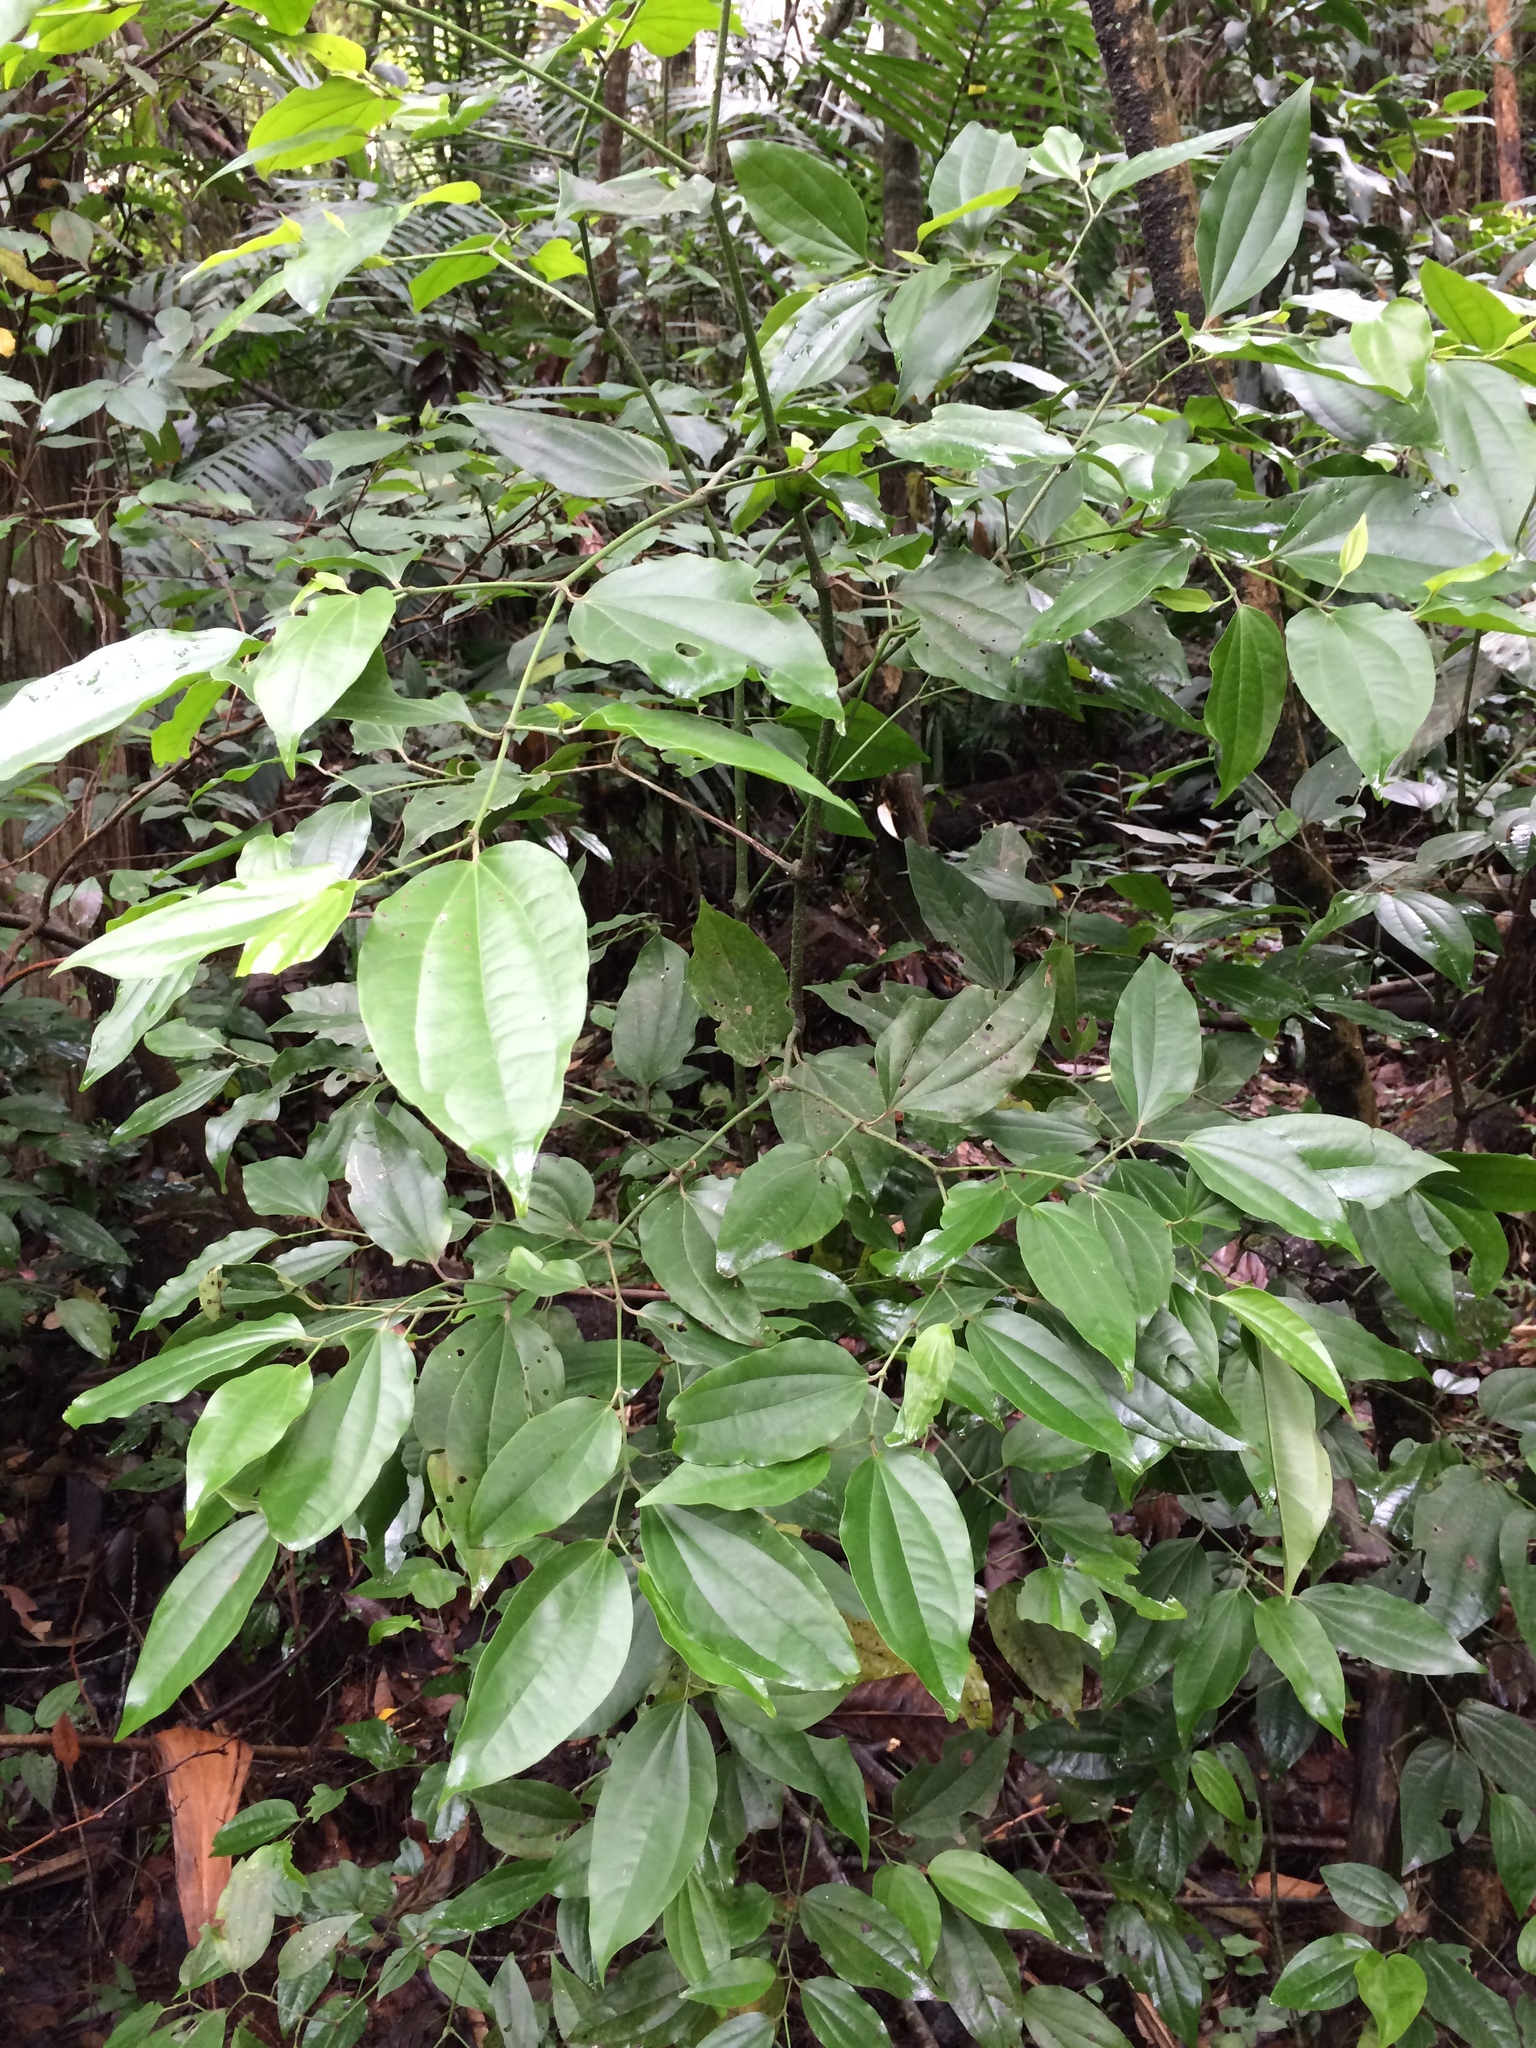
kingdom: Plantae
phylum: Tracheophyta
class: Magnoliopsida
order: Piperales
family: Piperaceae
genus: Piper
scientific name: Piper amalago
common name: Pepper-elder
